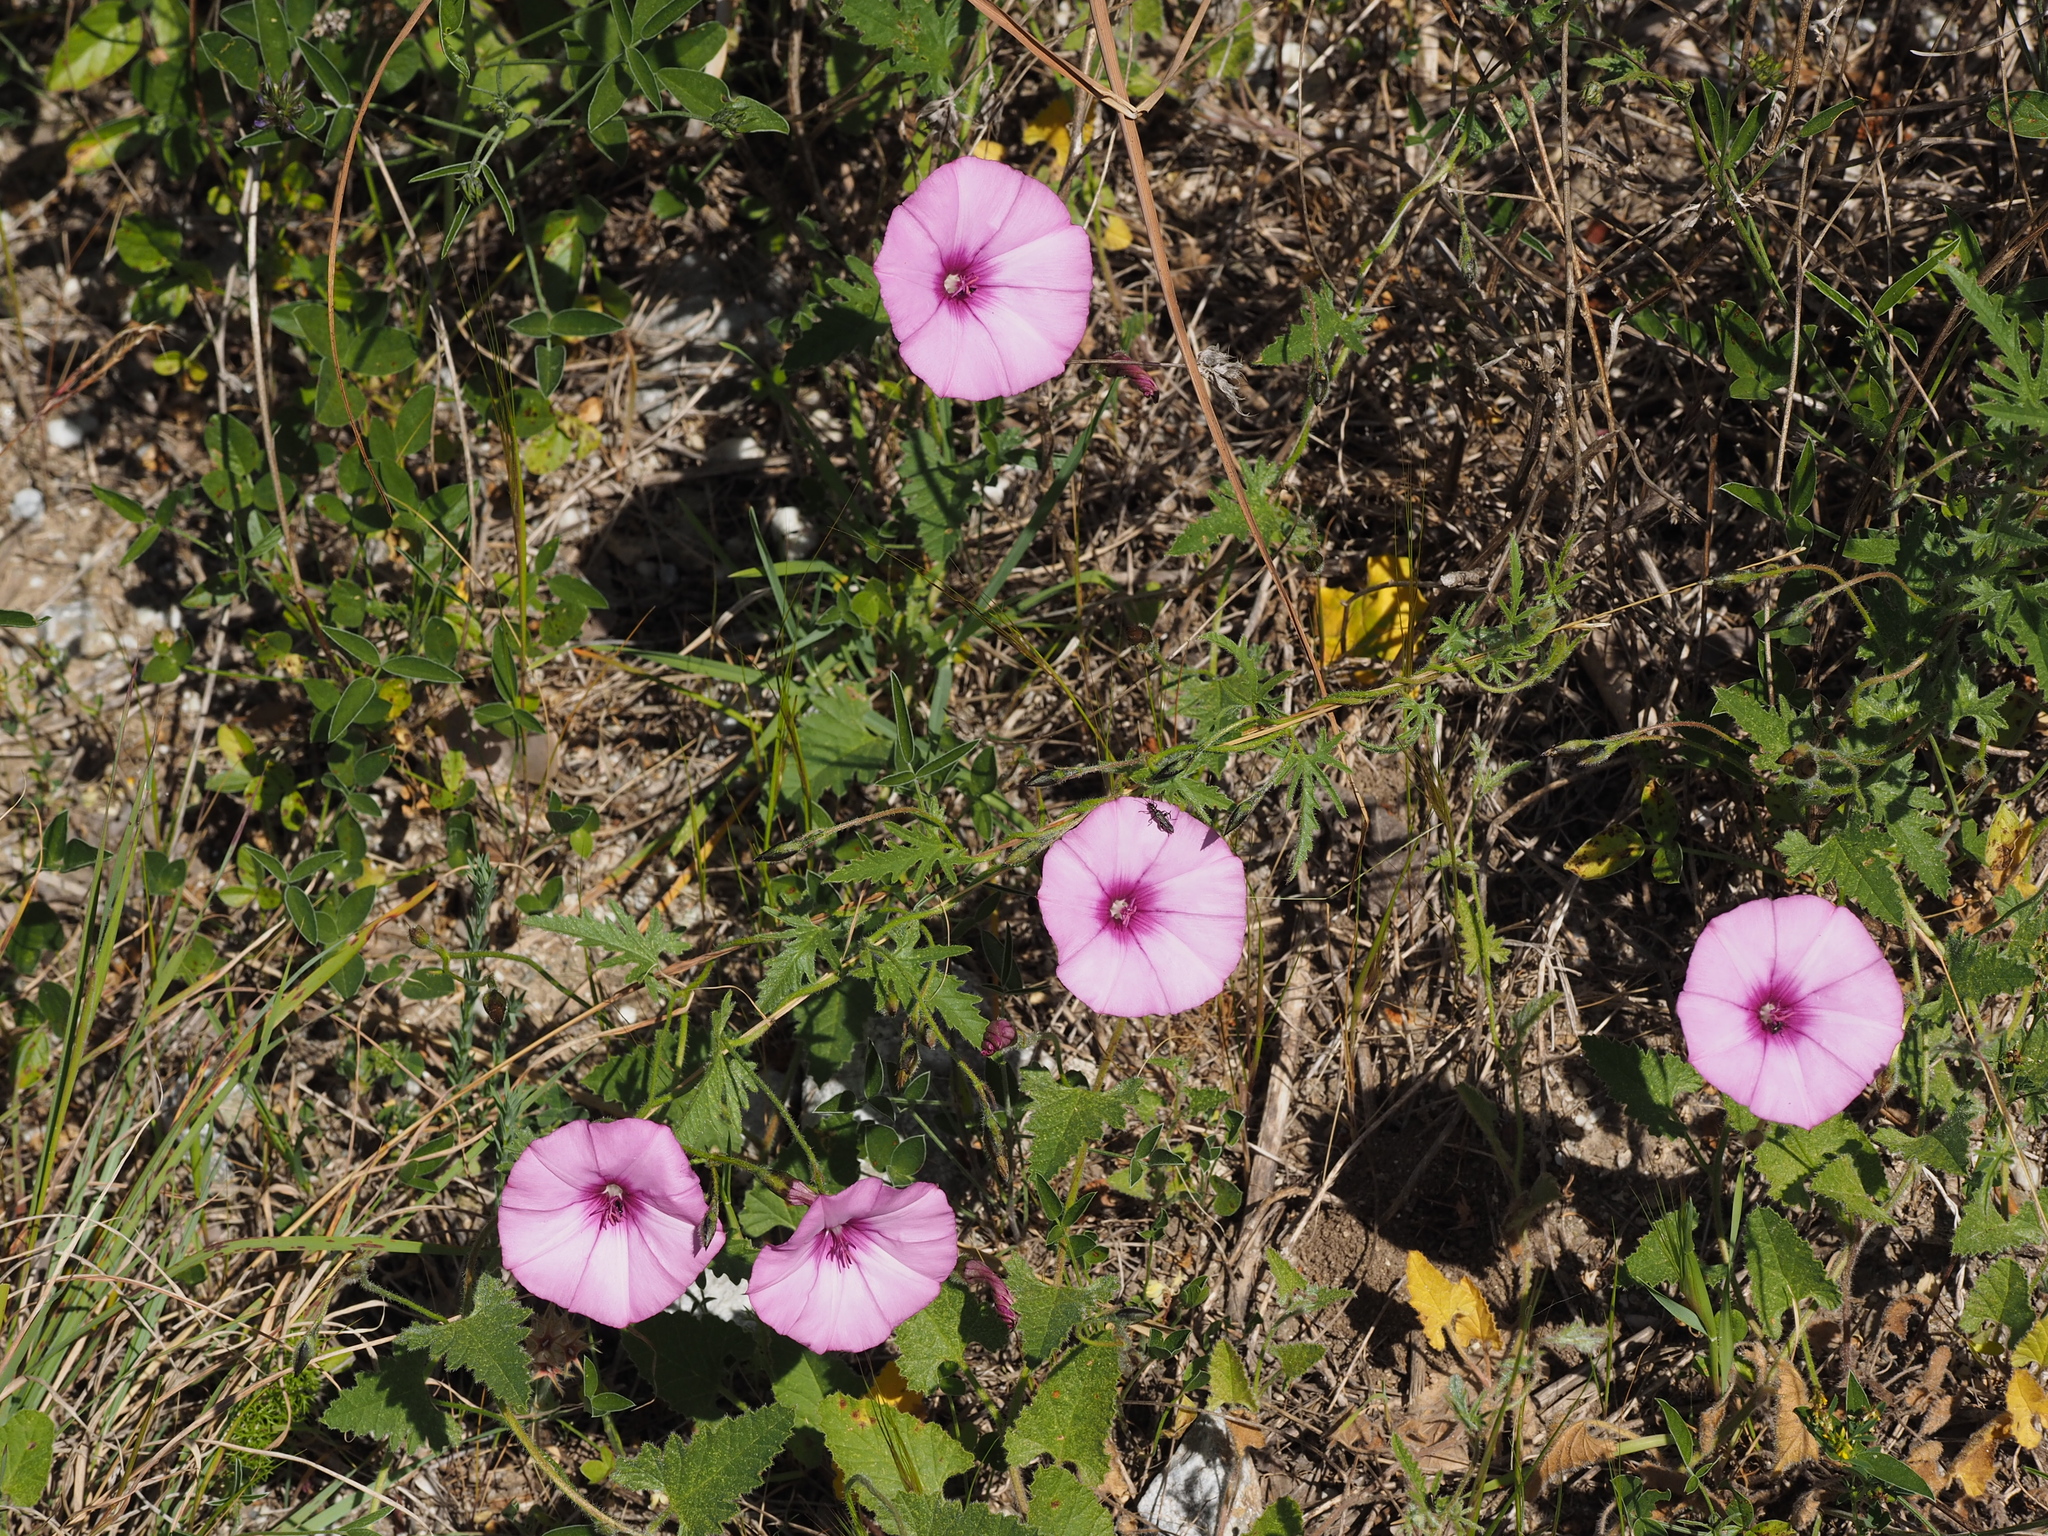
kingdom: Plantae
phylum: Tracheophyta
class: Magnoliopsida
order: Solanales
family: Convolvulaceae
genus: Convolvulus
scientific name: Convolvulus althaeoides
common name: Mallow bindweed
